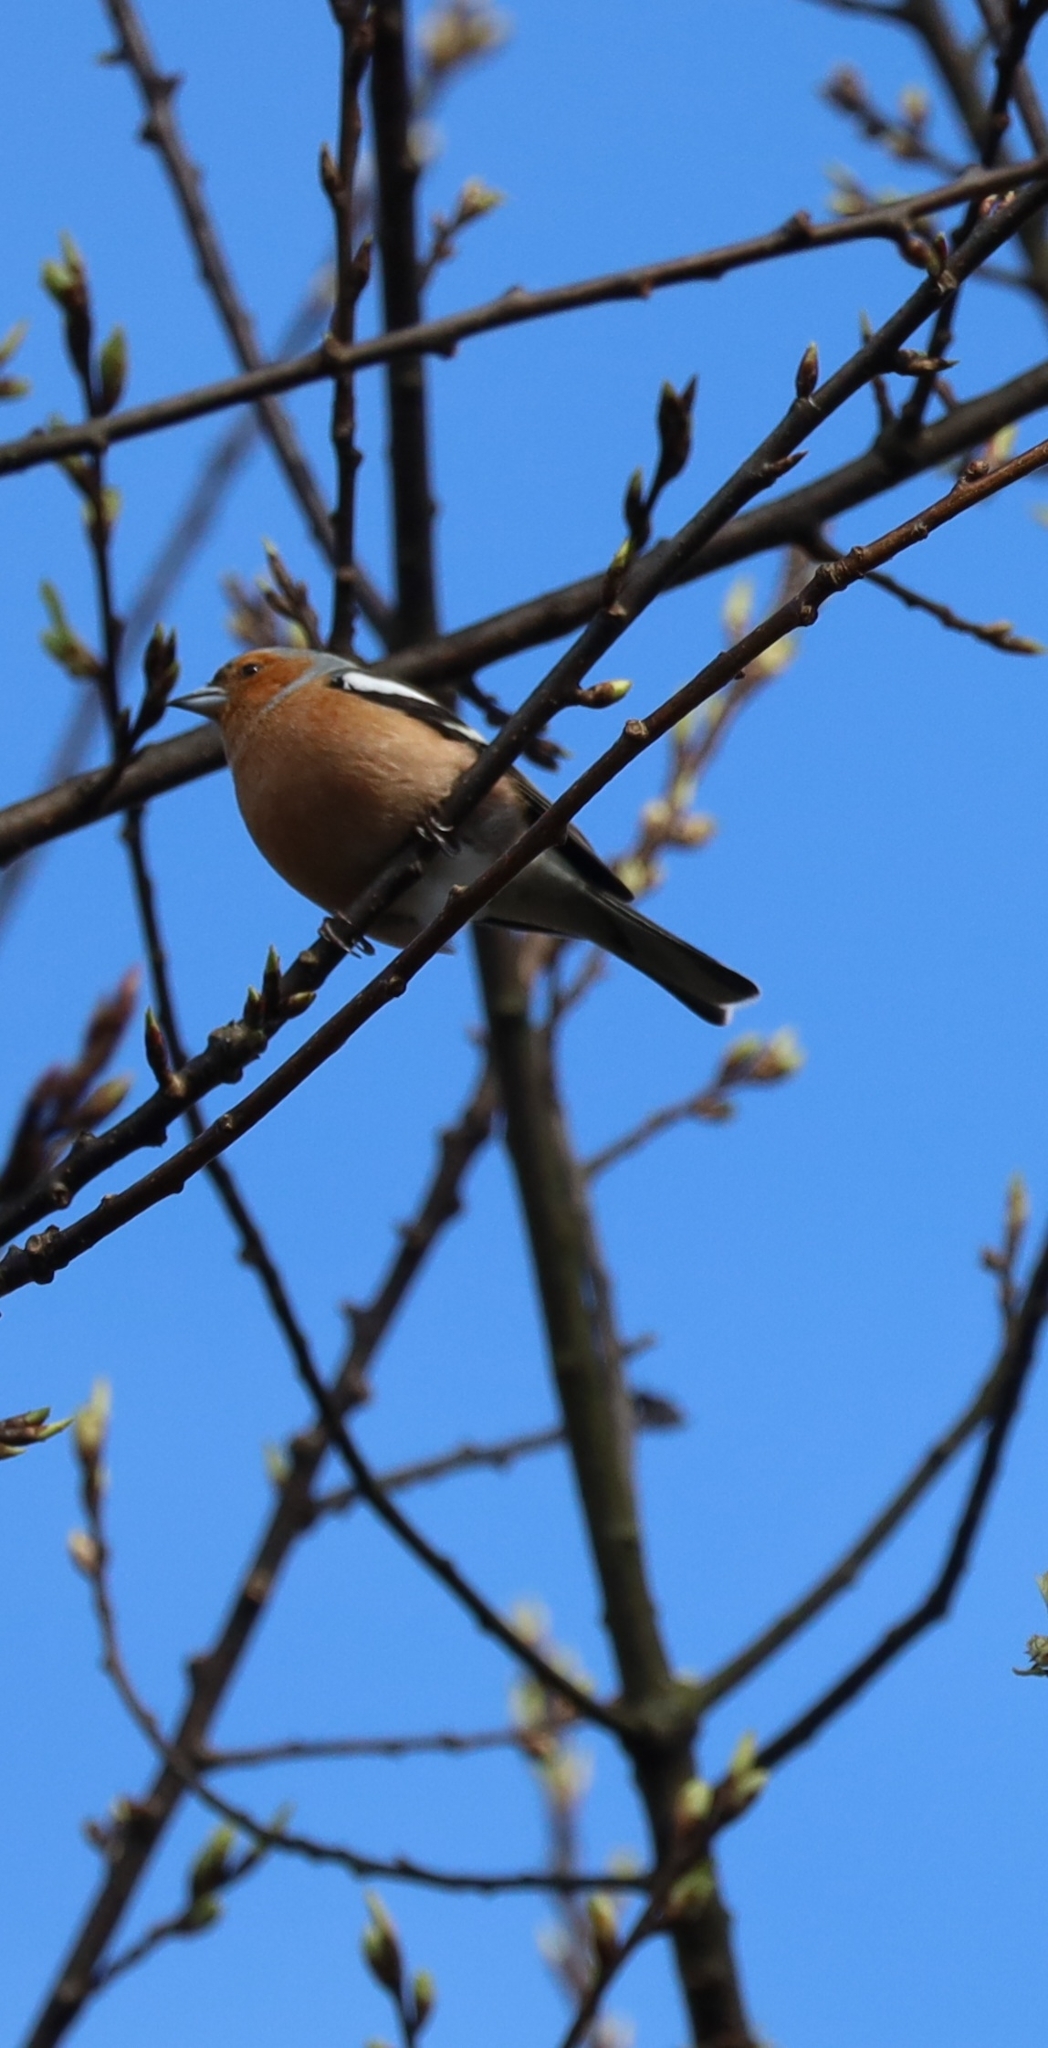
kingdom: Animalia
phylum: Chordata
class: Aves
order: Passeriformes
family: Fringillidae
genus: Fringilla
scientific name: Fringilla coelebs
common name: Common chaffinch
